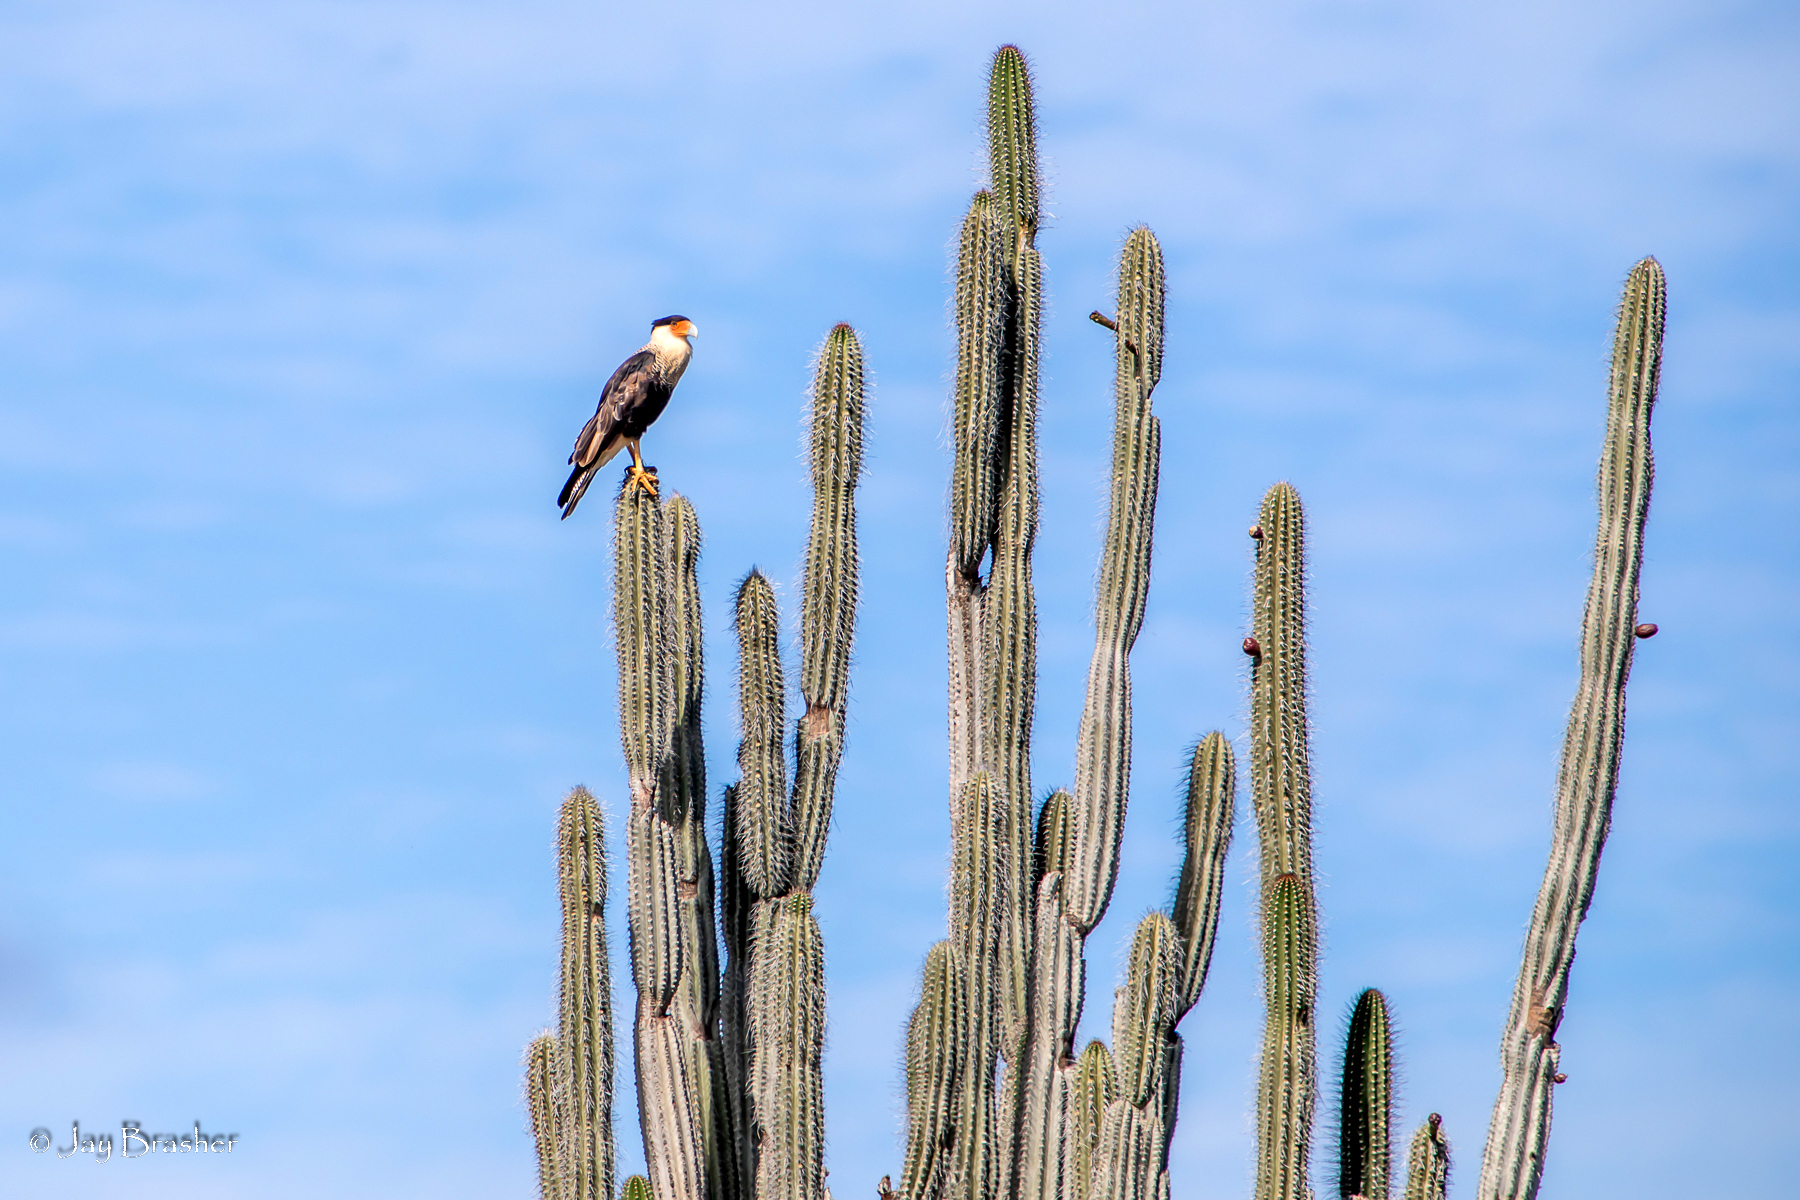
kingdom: Plantae
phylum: Tracheophyta
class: Magnoliopsida
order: Caryophyllales
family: Cactaceae
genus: Cereus
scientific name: Cereus repandus
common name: Sweetpotato cactus
